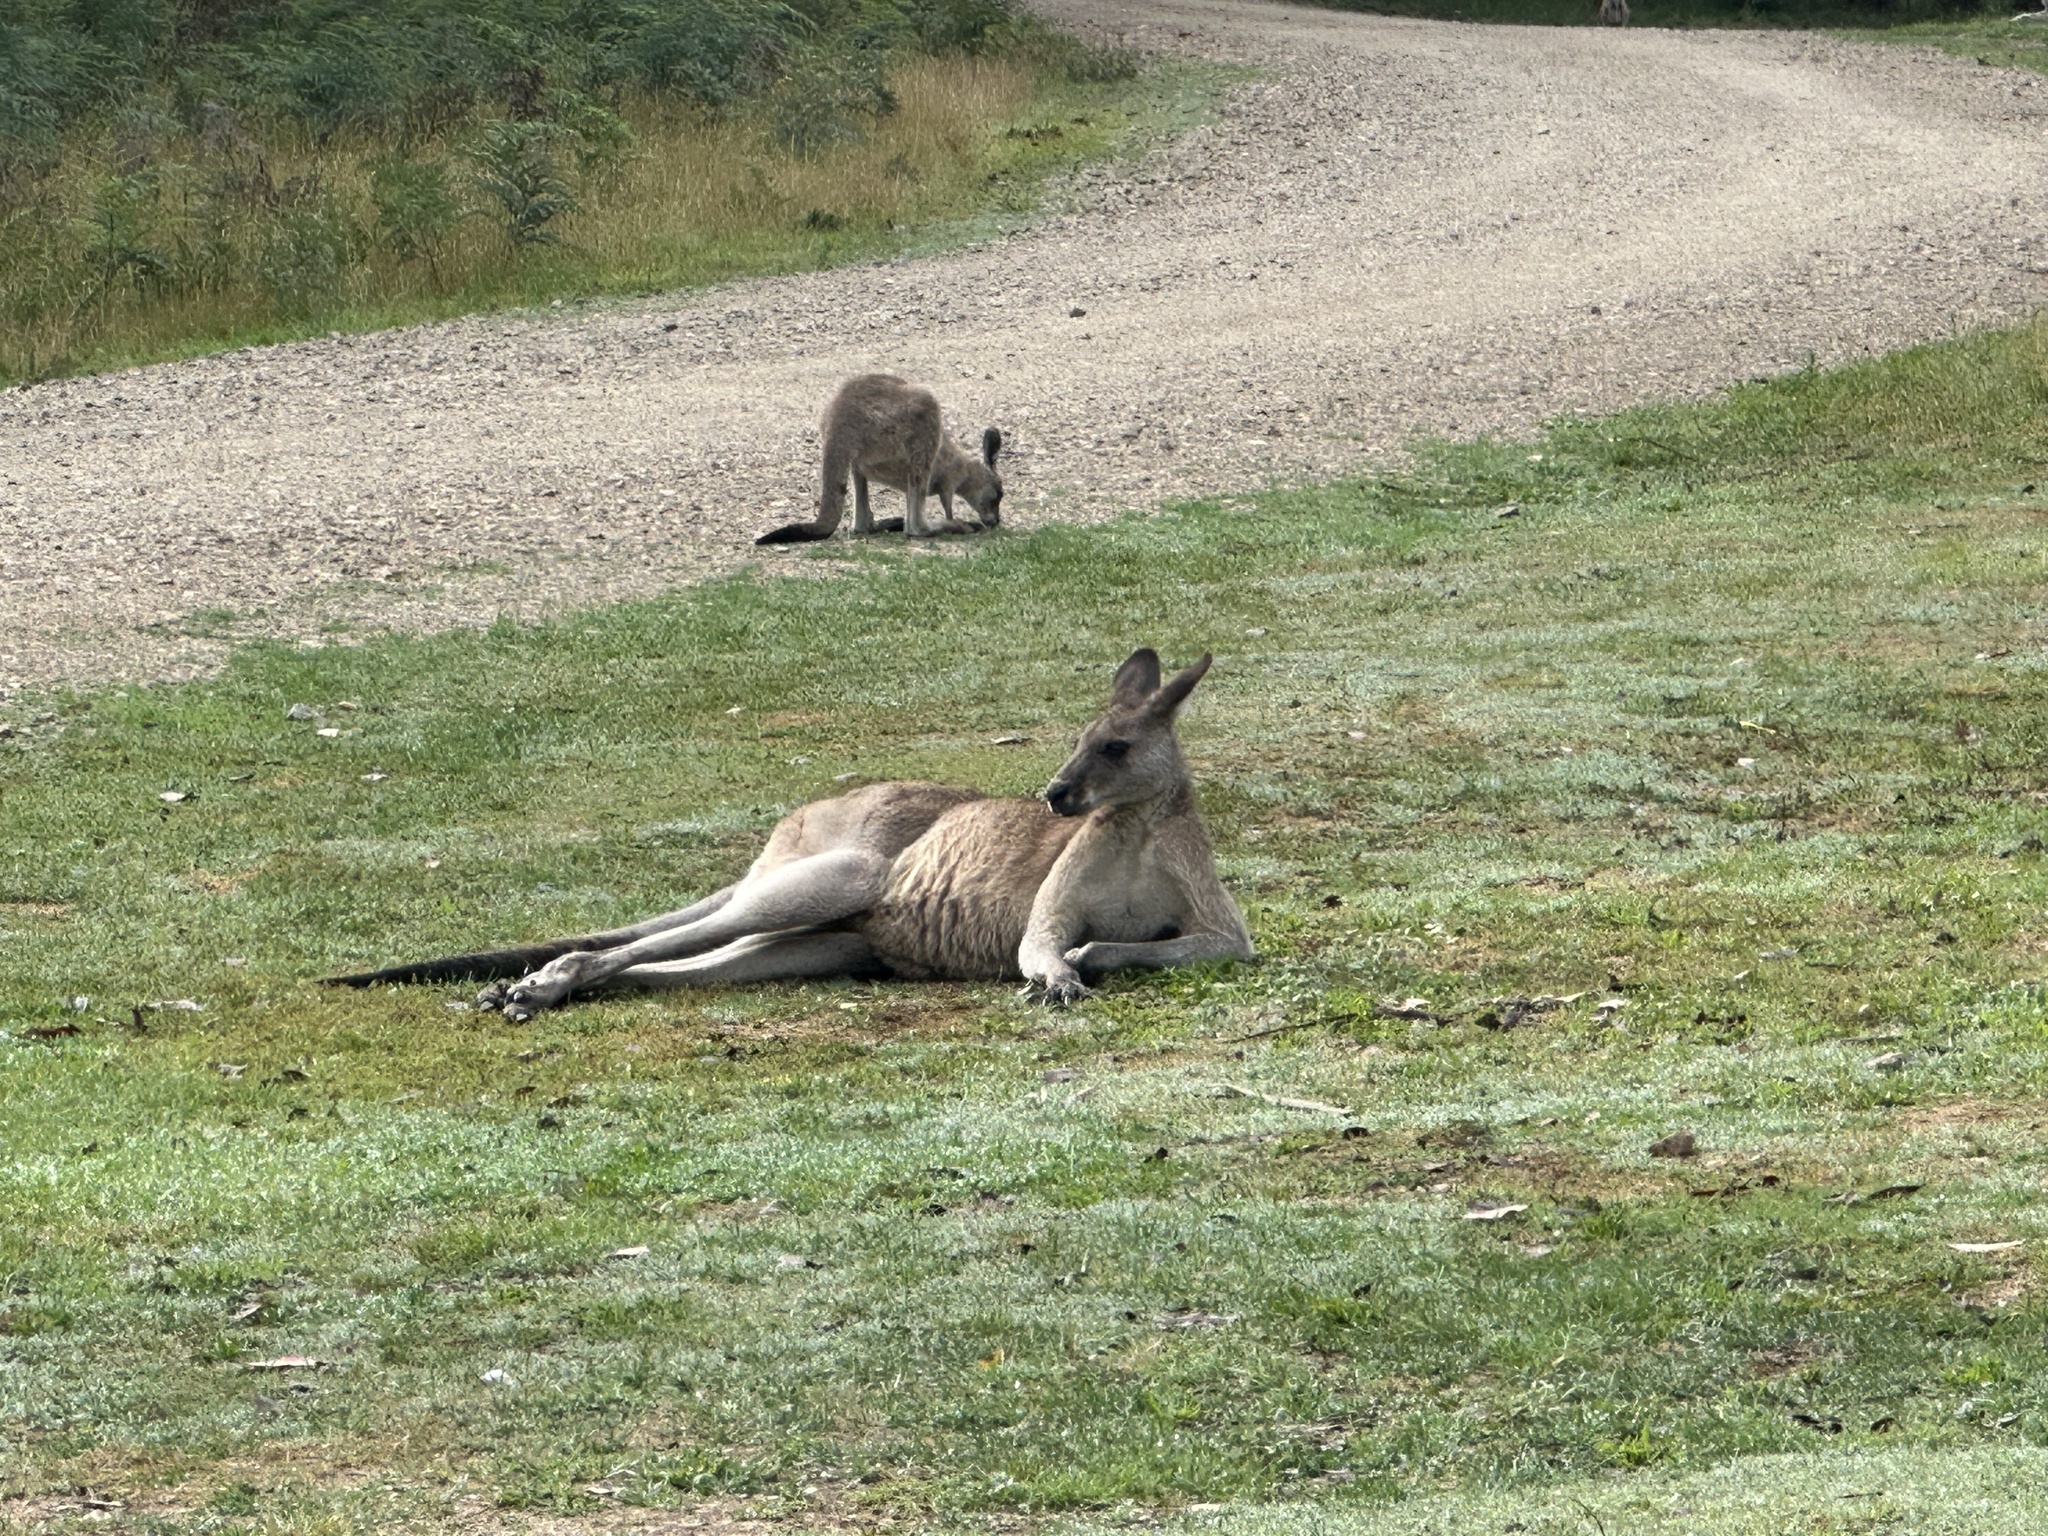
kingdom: Animalia
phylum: Chordata
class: Mammalia
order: Diprotodontia
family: Macropodidae
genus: Macropus
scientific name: Macropus giganteus
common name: Eastern grey kangaroo
